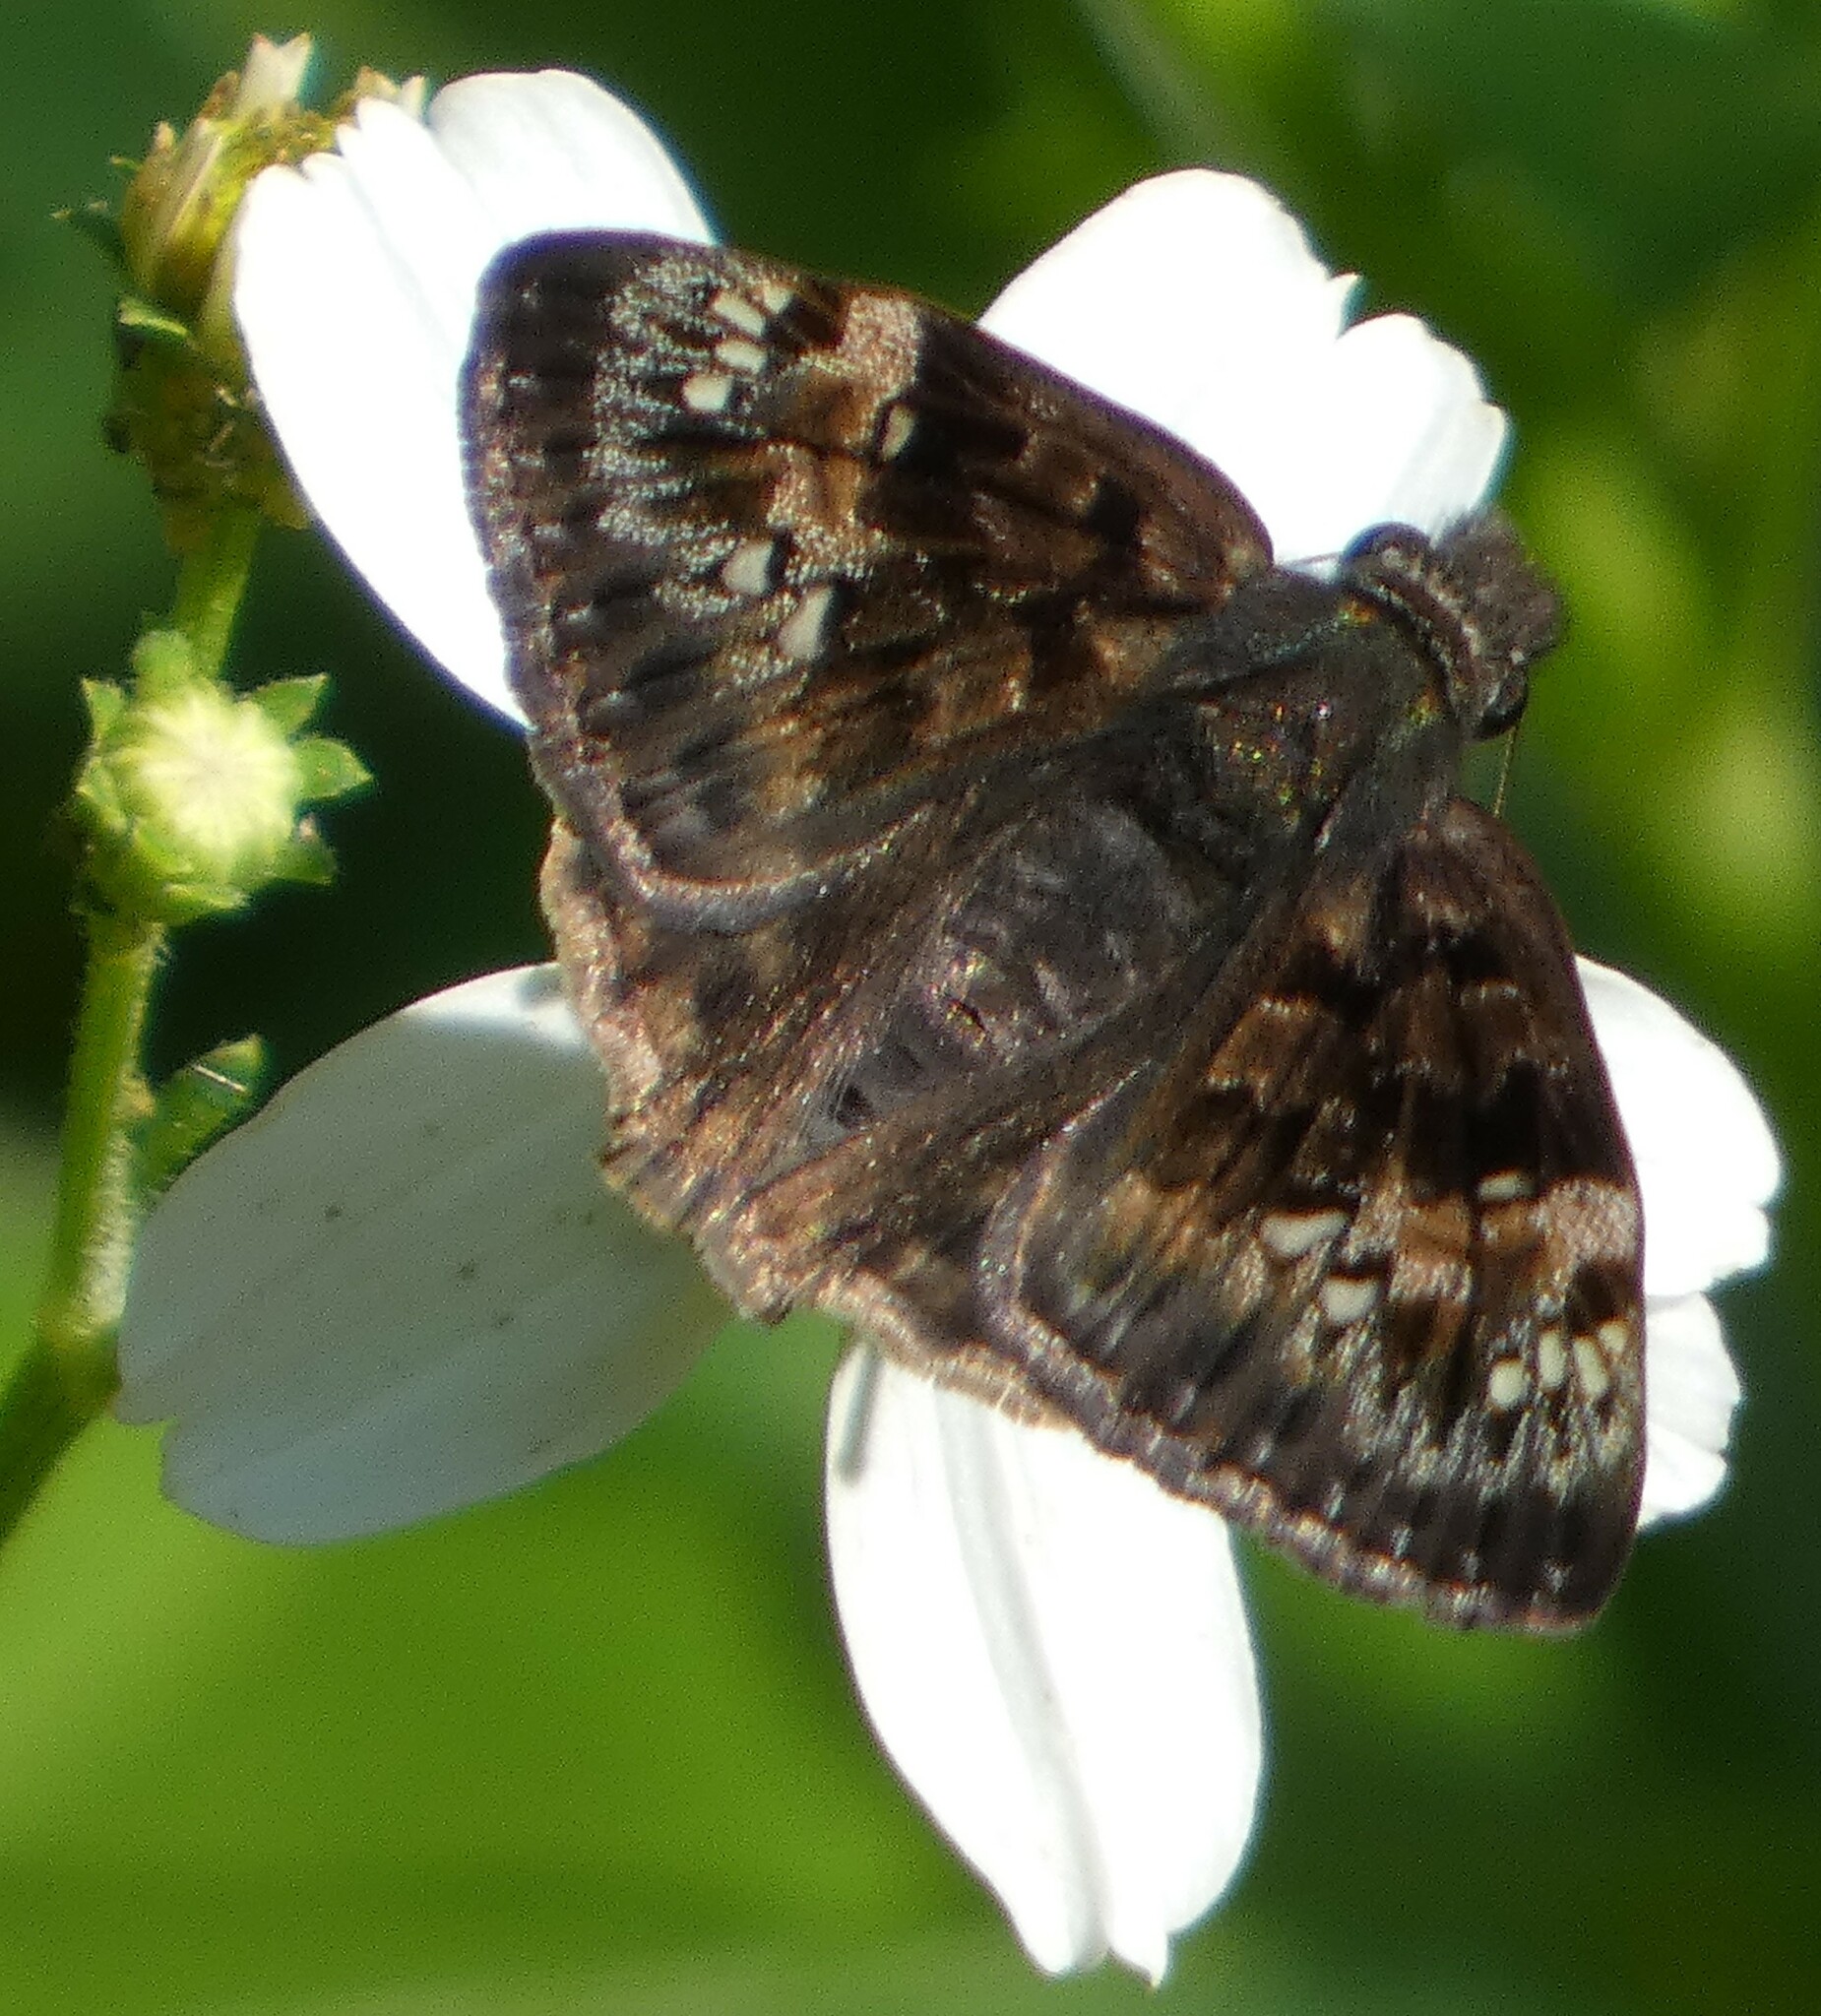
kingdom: Animalia
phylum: Arthropoda
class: Insecta
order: Lepidoptera
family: Hesperiidae
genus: Erynnis
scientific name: Erynnis horatius
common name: Horace's duskywing
